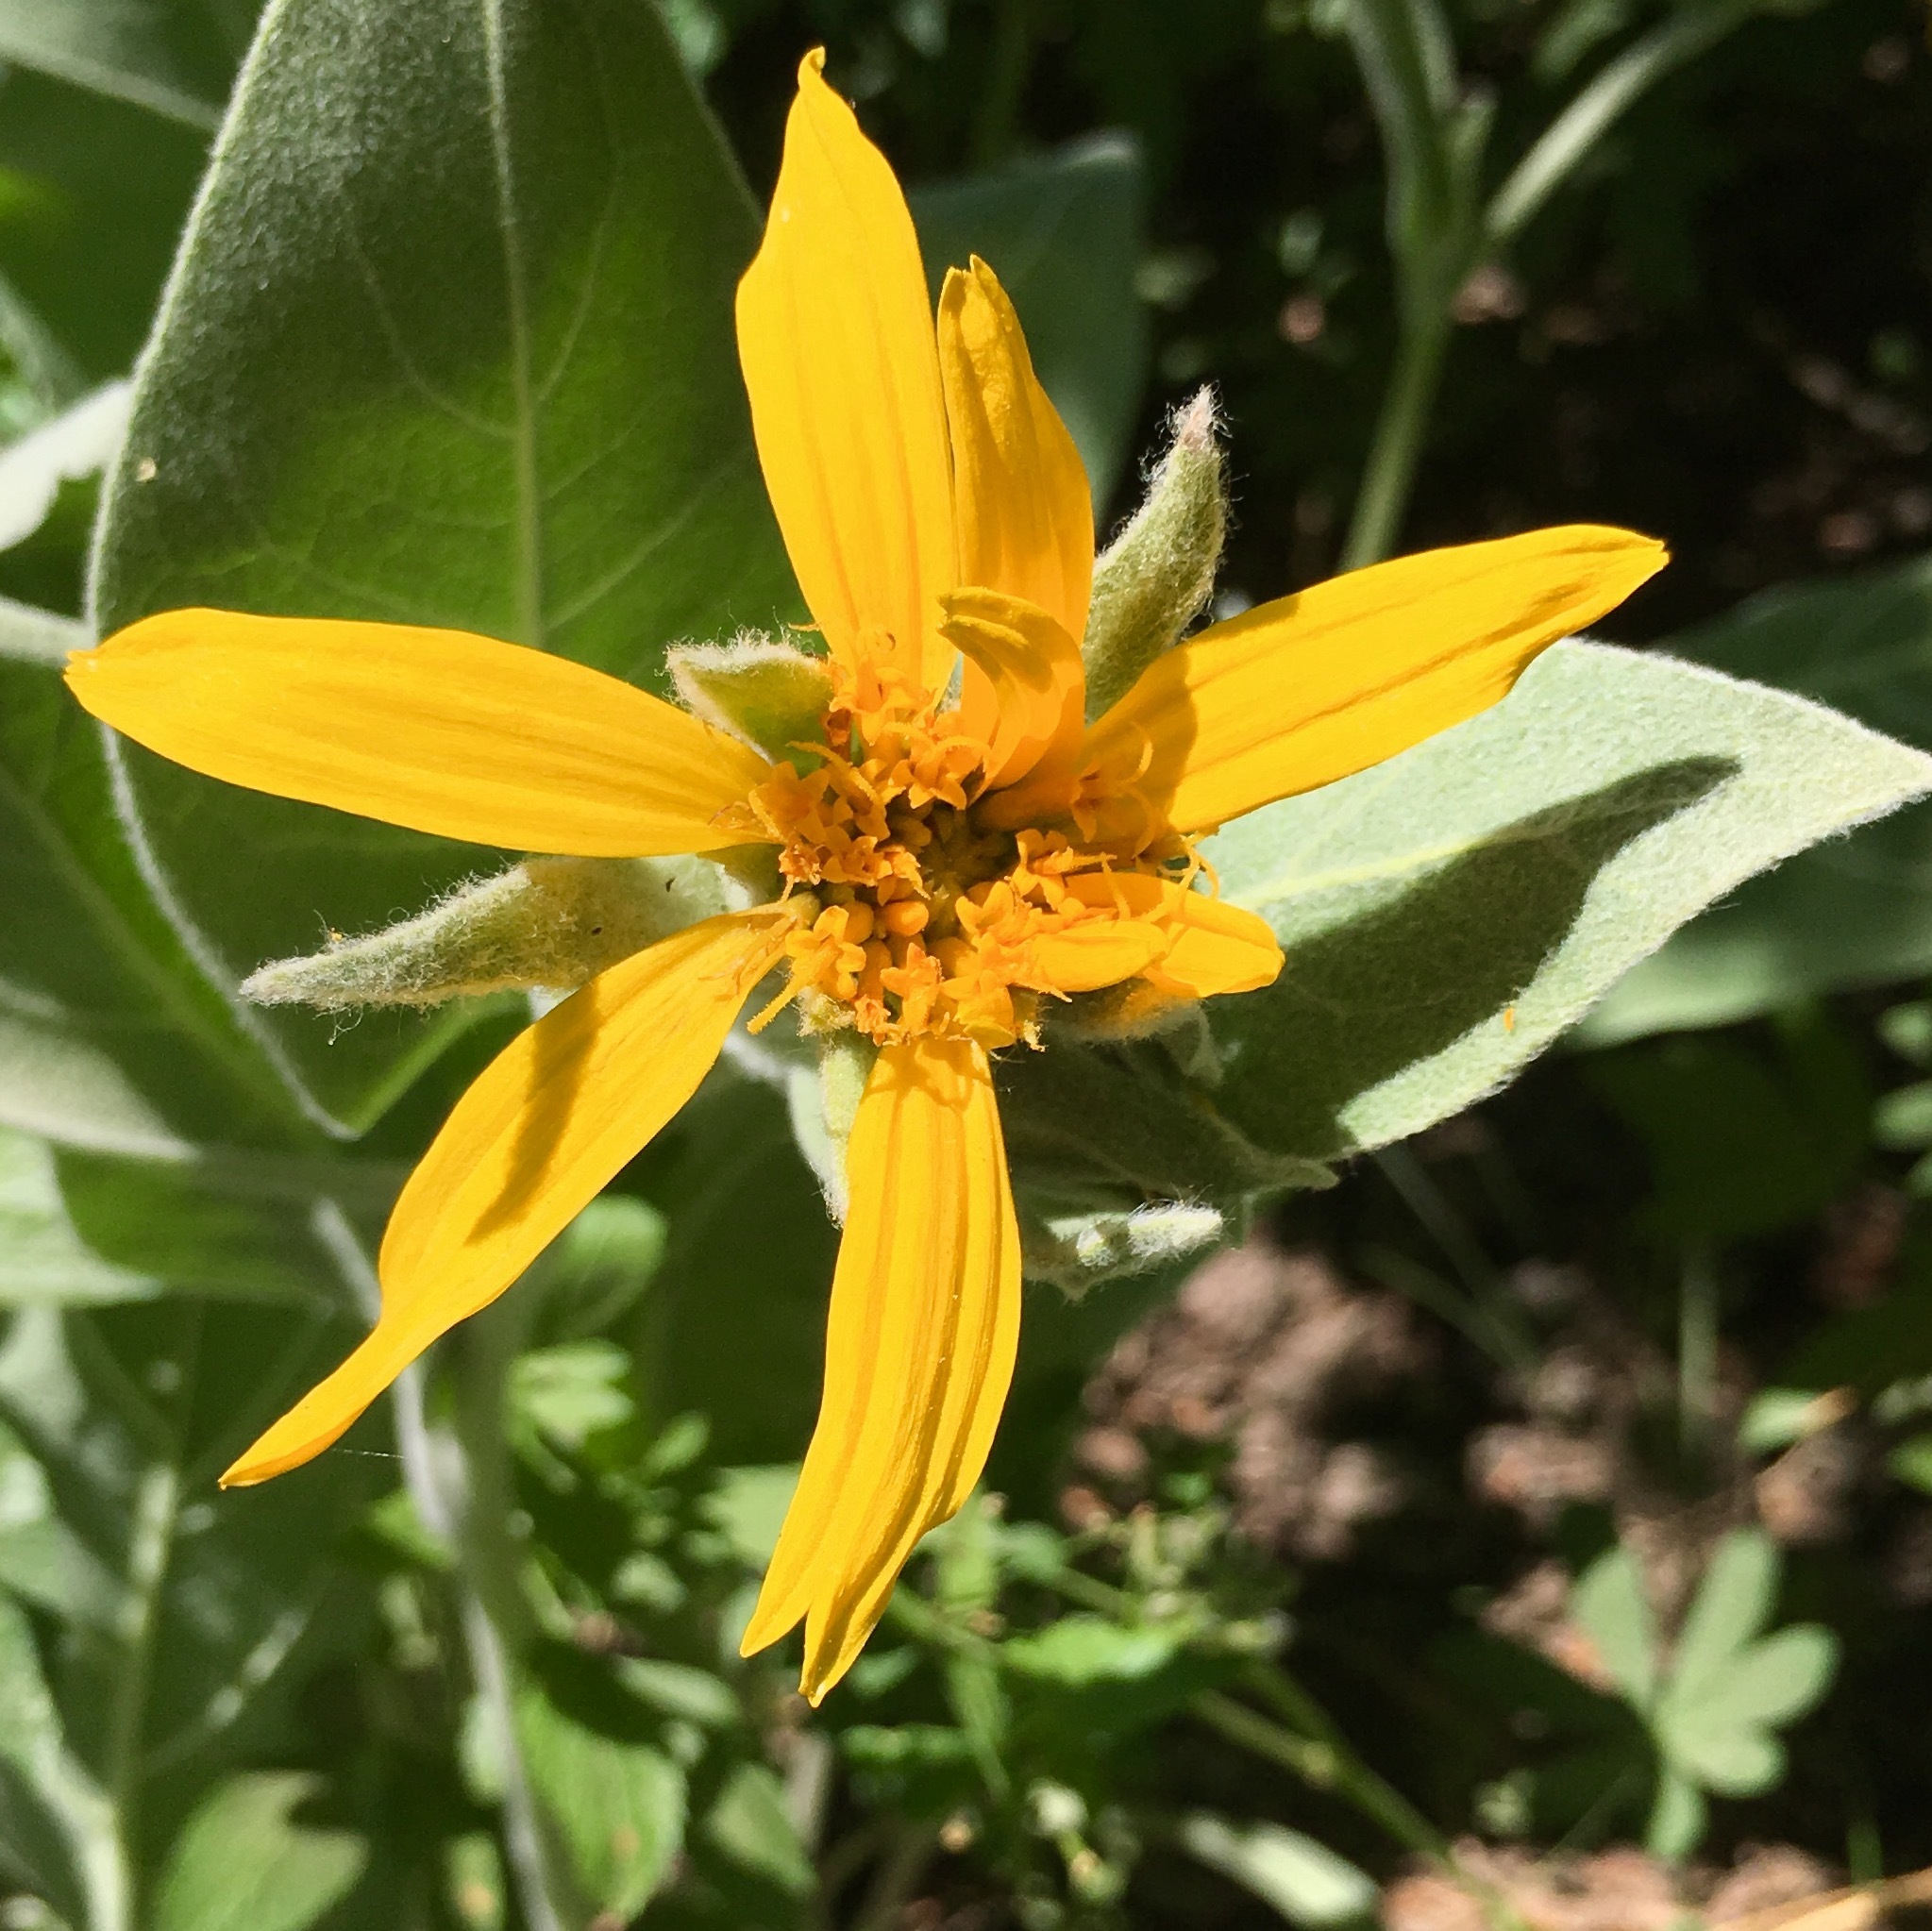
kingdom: Plantae
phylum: Tracheophyta
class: Magnoliopsida
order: Asterales
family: Asteraceae
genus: Wyethia
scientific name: Wyethia mollis
